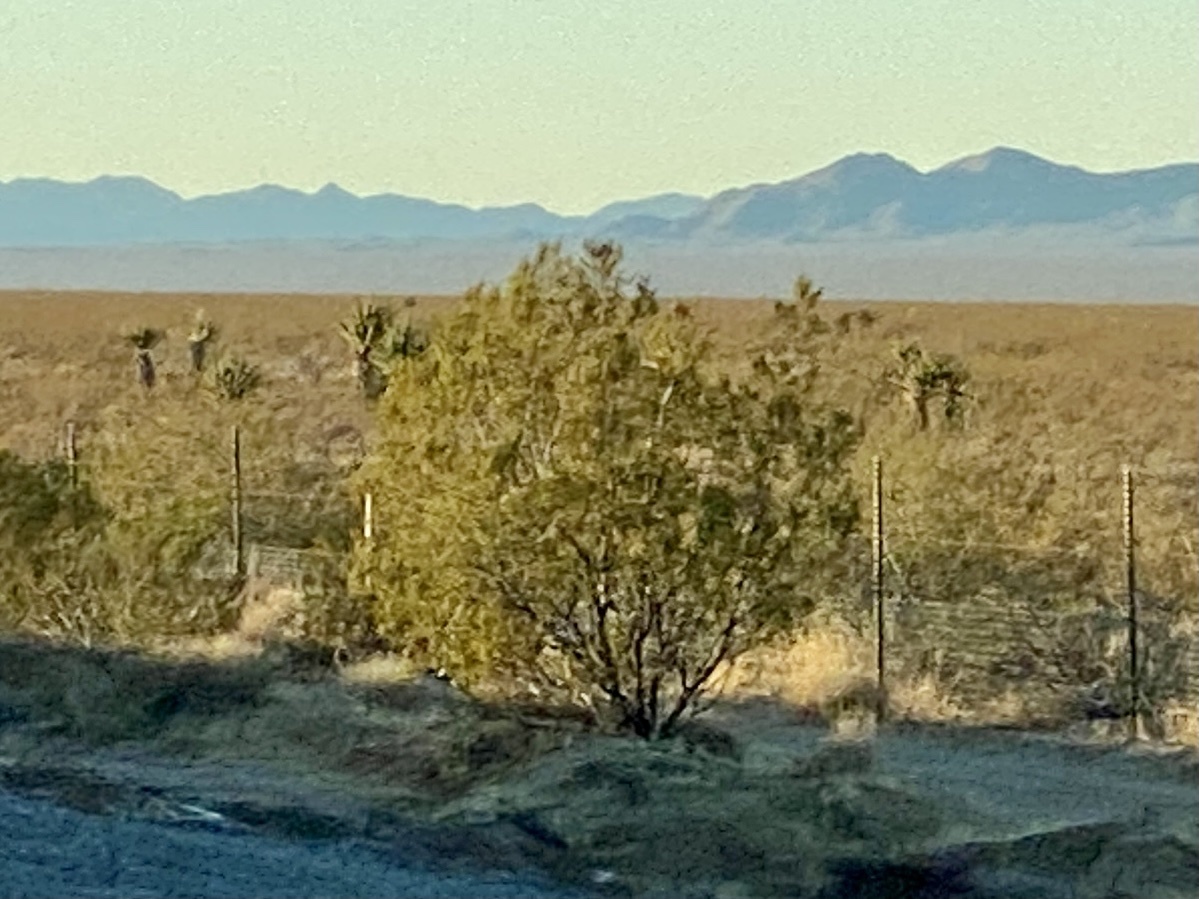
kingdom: Plantae
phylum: Tracheophyta
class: Magnoliopsida
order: Zygophyllales
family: Zygophyllaceae
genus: Larrea
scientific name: Larrea tridentata
